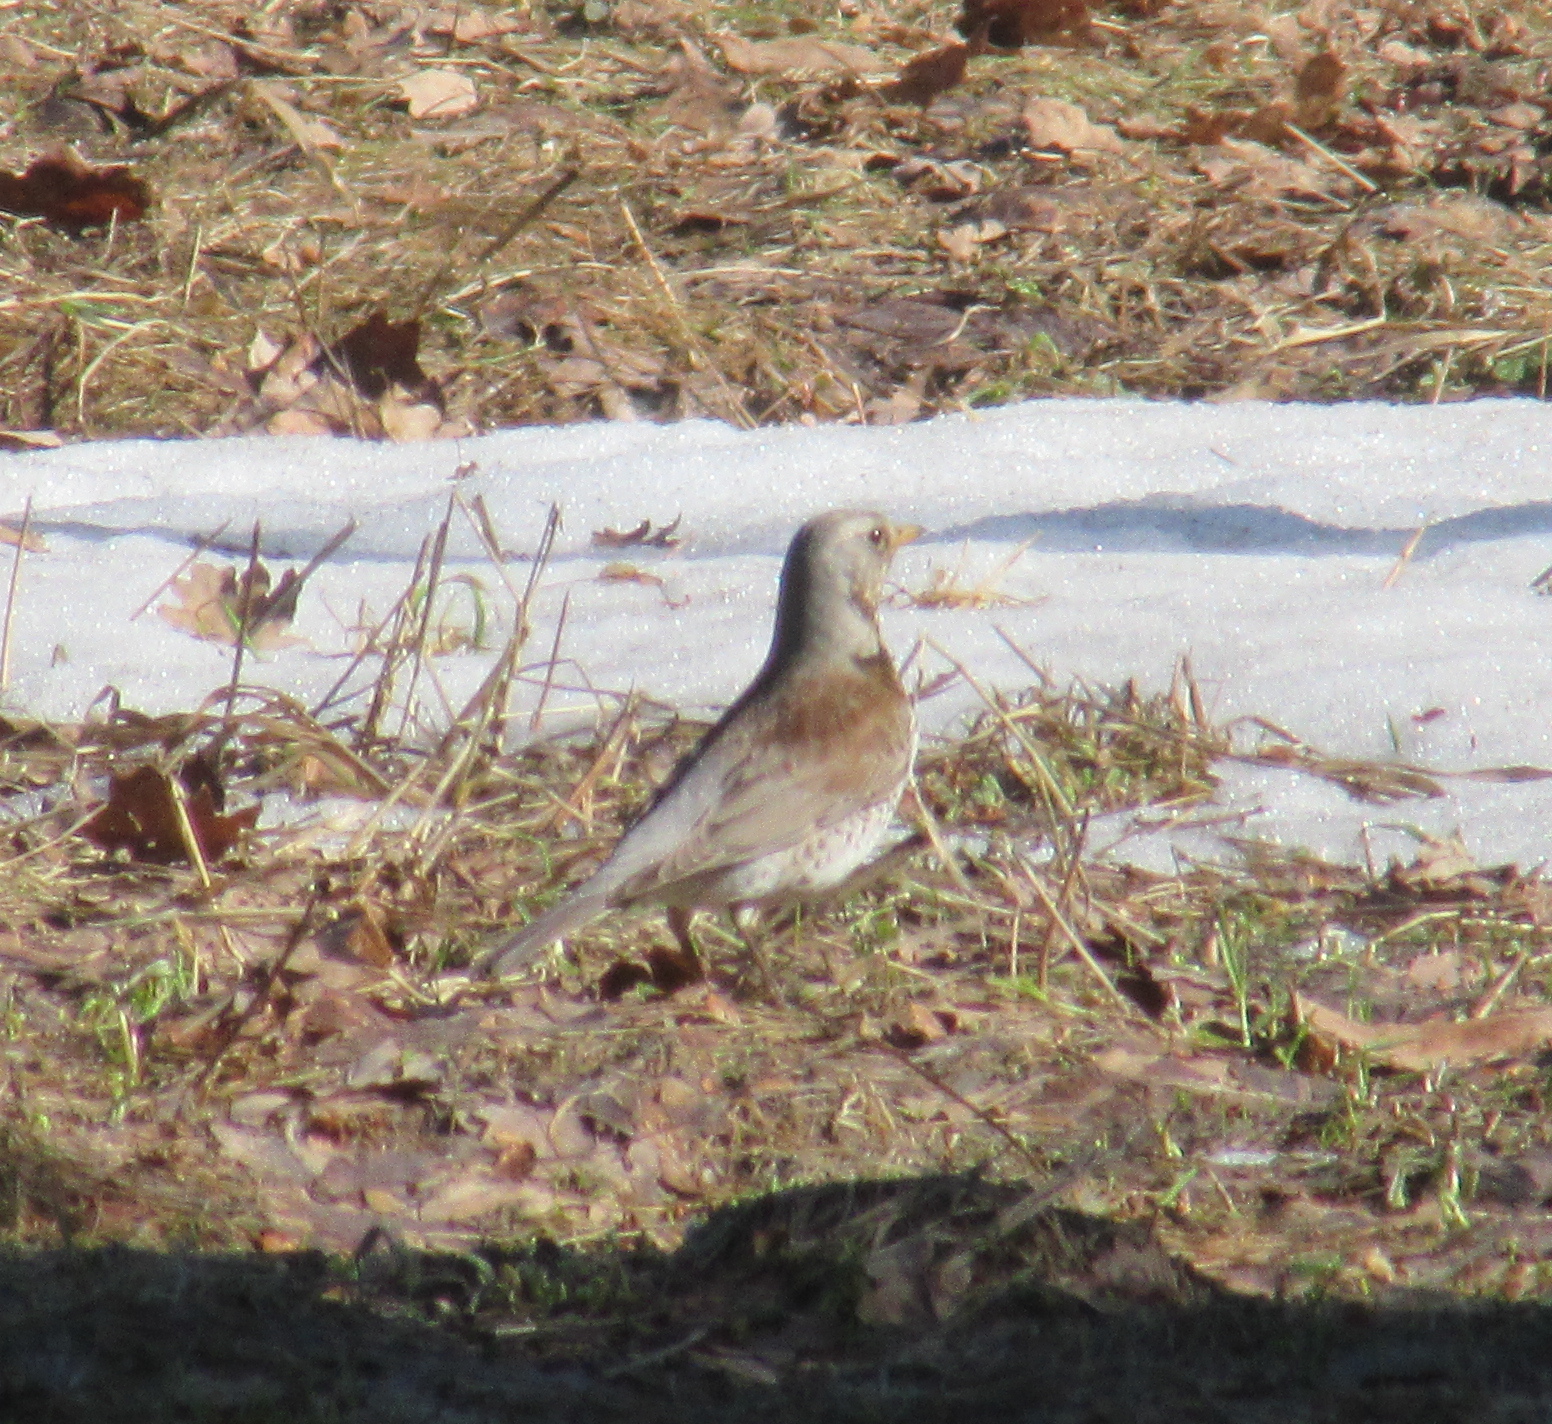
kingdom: Animalia
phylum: Chordata
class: Aves
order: Passeriformes
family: Turdidae
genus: Turdus
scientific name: Turdus pilaris
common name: Fieldfare
